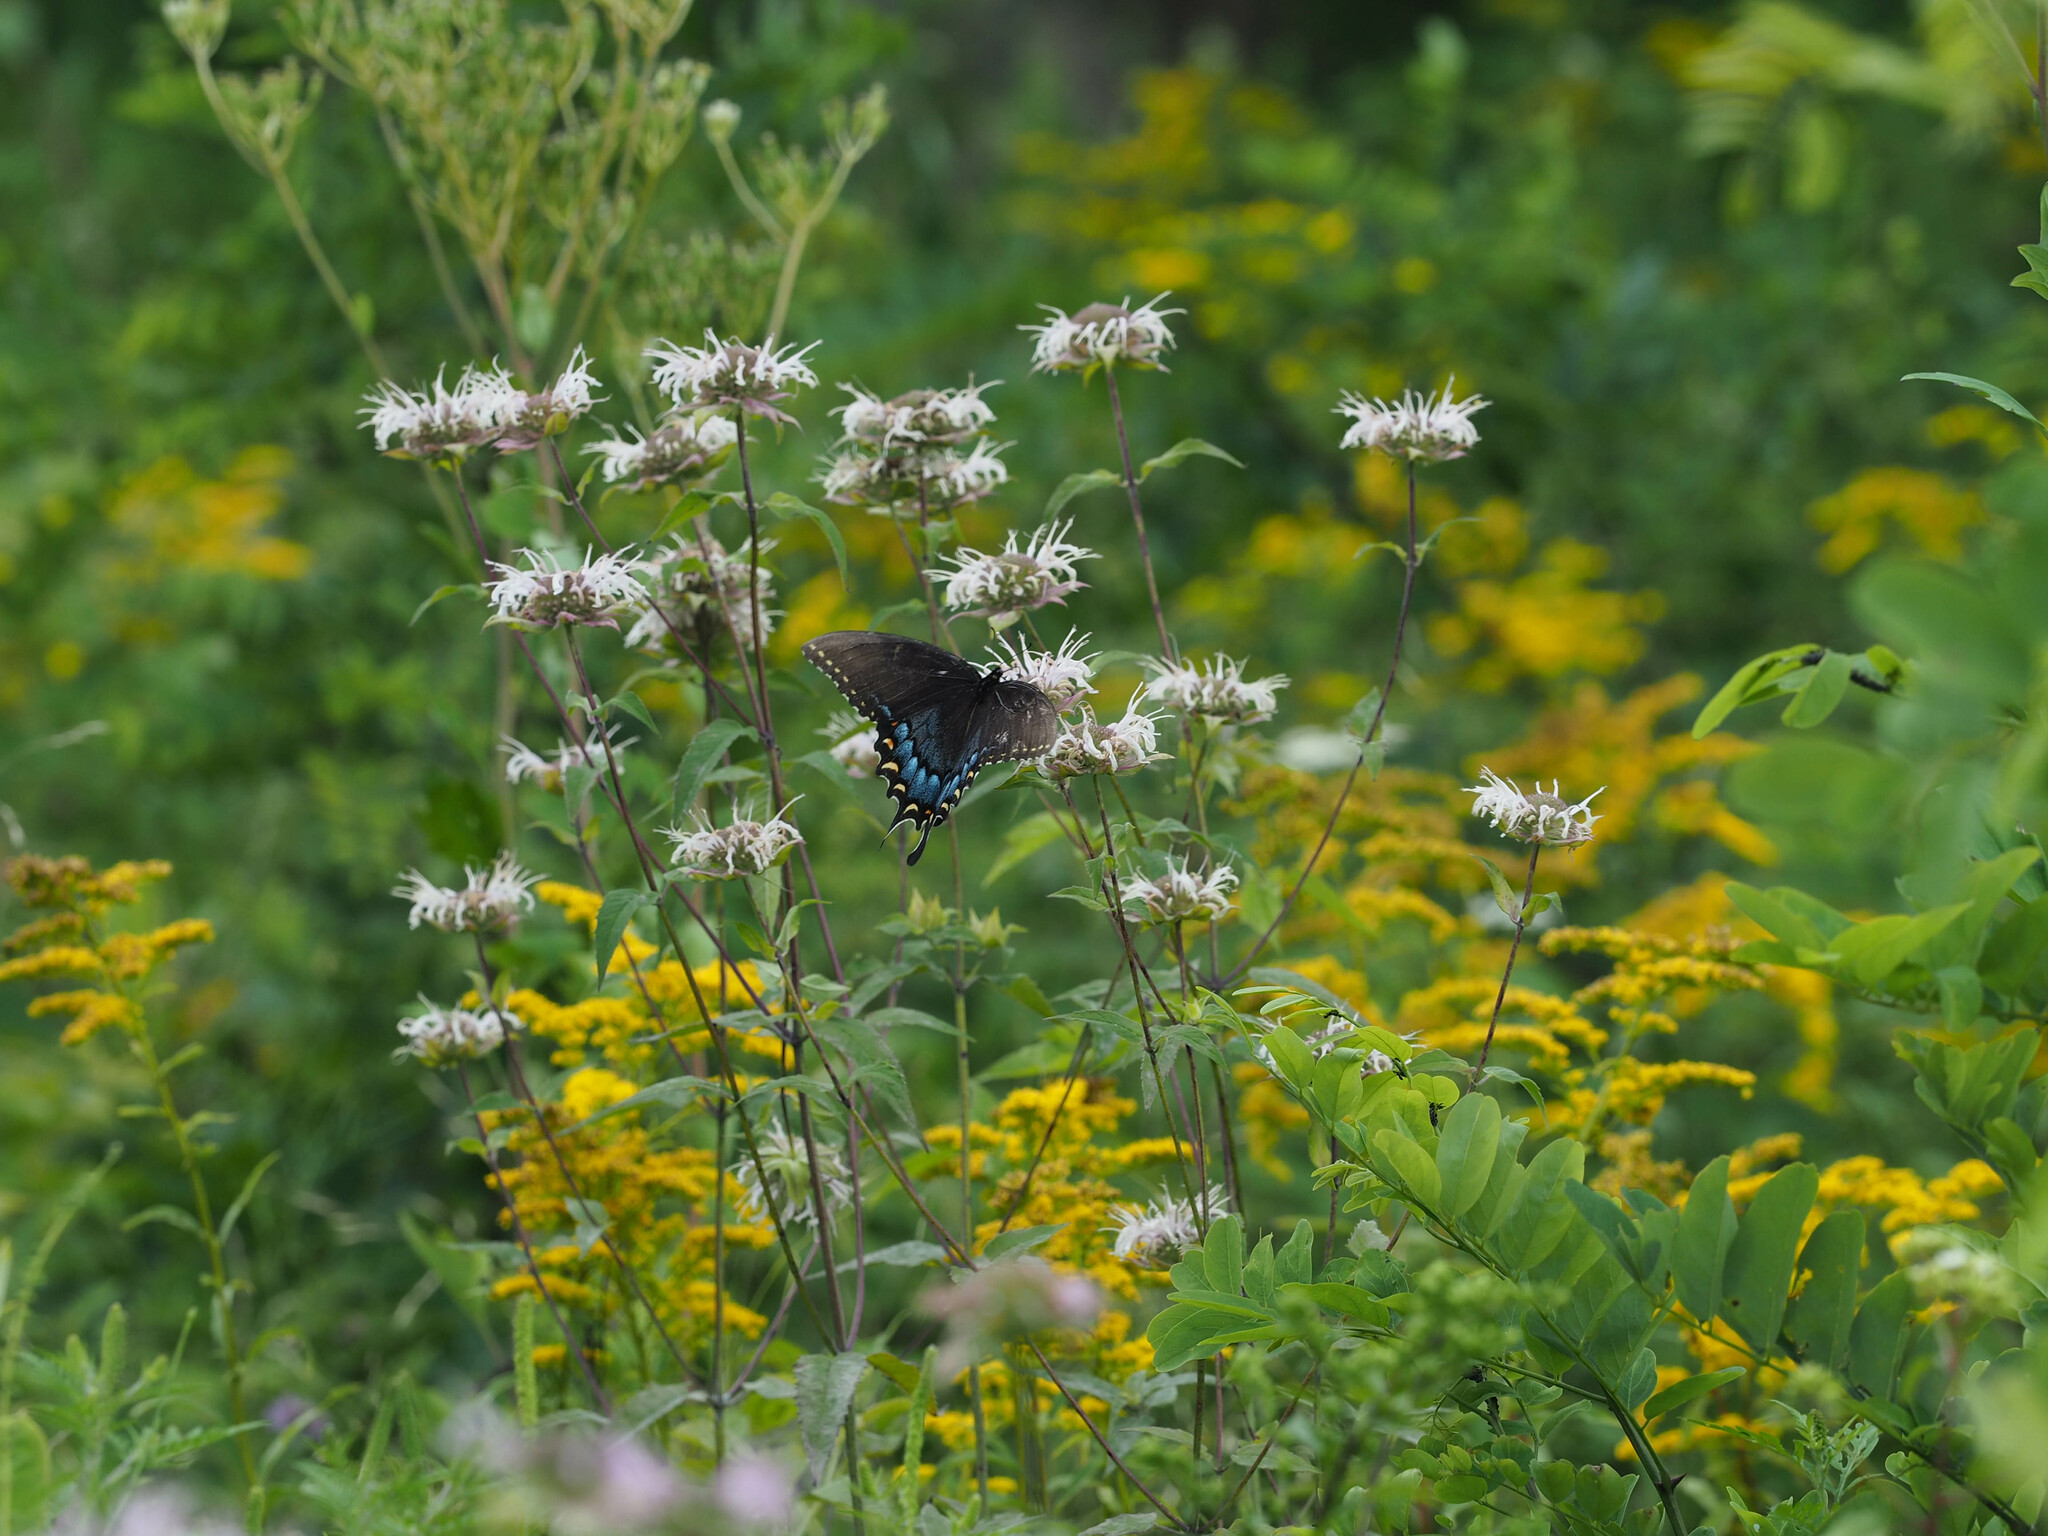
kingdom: Animalia
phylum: Arthropoda
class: Insecta
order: Lepidoptera
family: Papilionidae
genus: Papilio
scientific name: Papilio glaucus
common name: Tiger swallowtail
